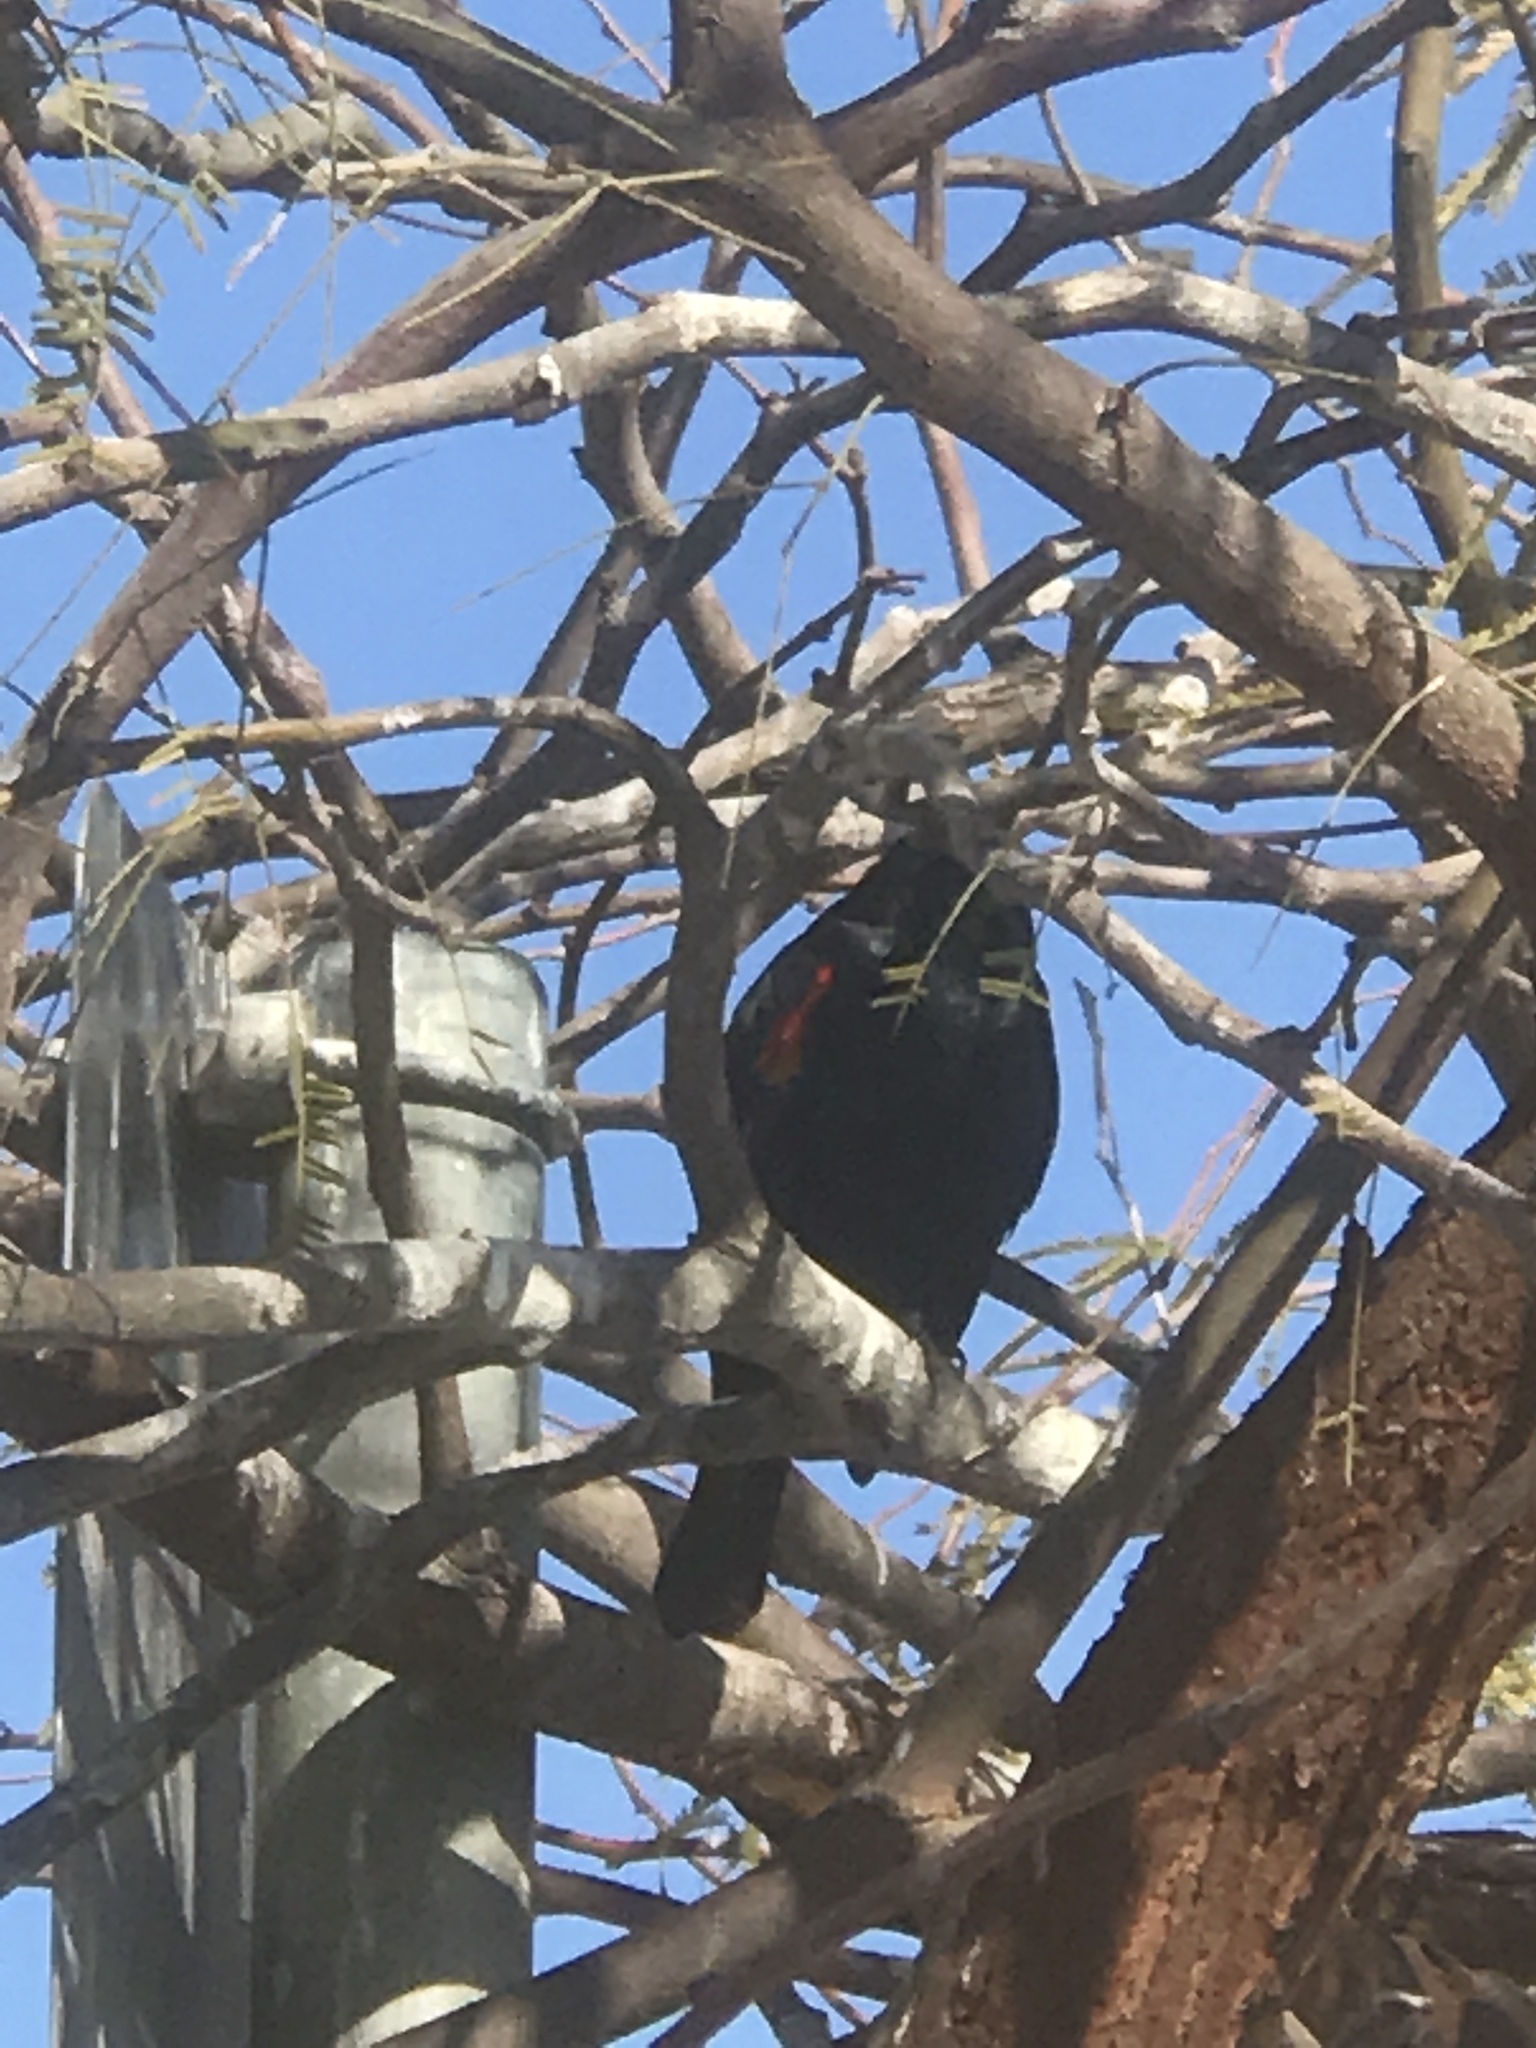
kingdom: Animalia
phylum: Chordata
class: Aves
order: Passeriformes
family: Icteridae
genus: Agelaius
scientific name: Agelaius phoeniceus
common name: Red-winged blackbird
